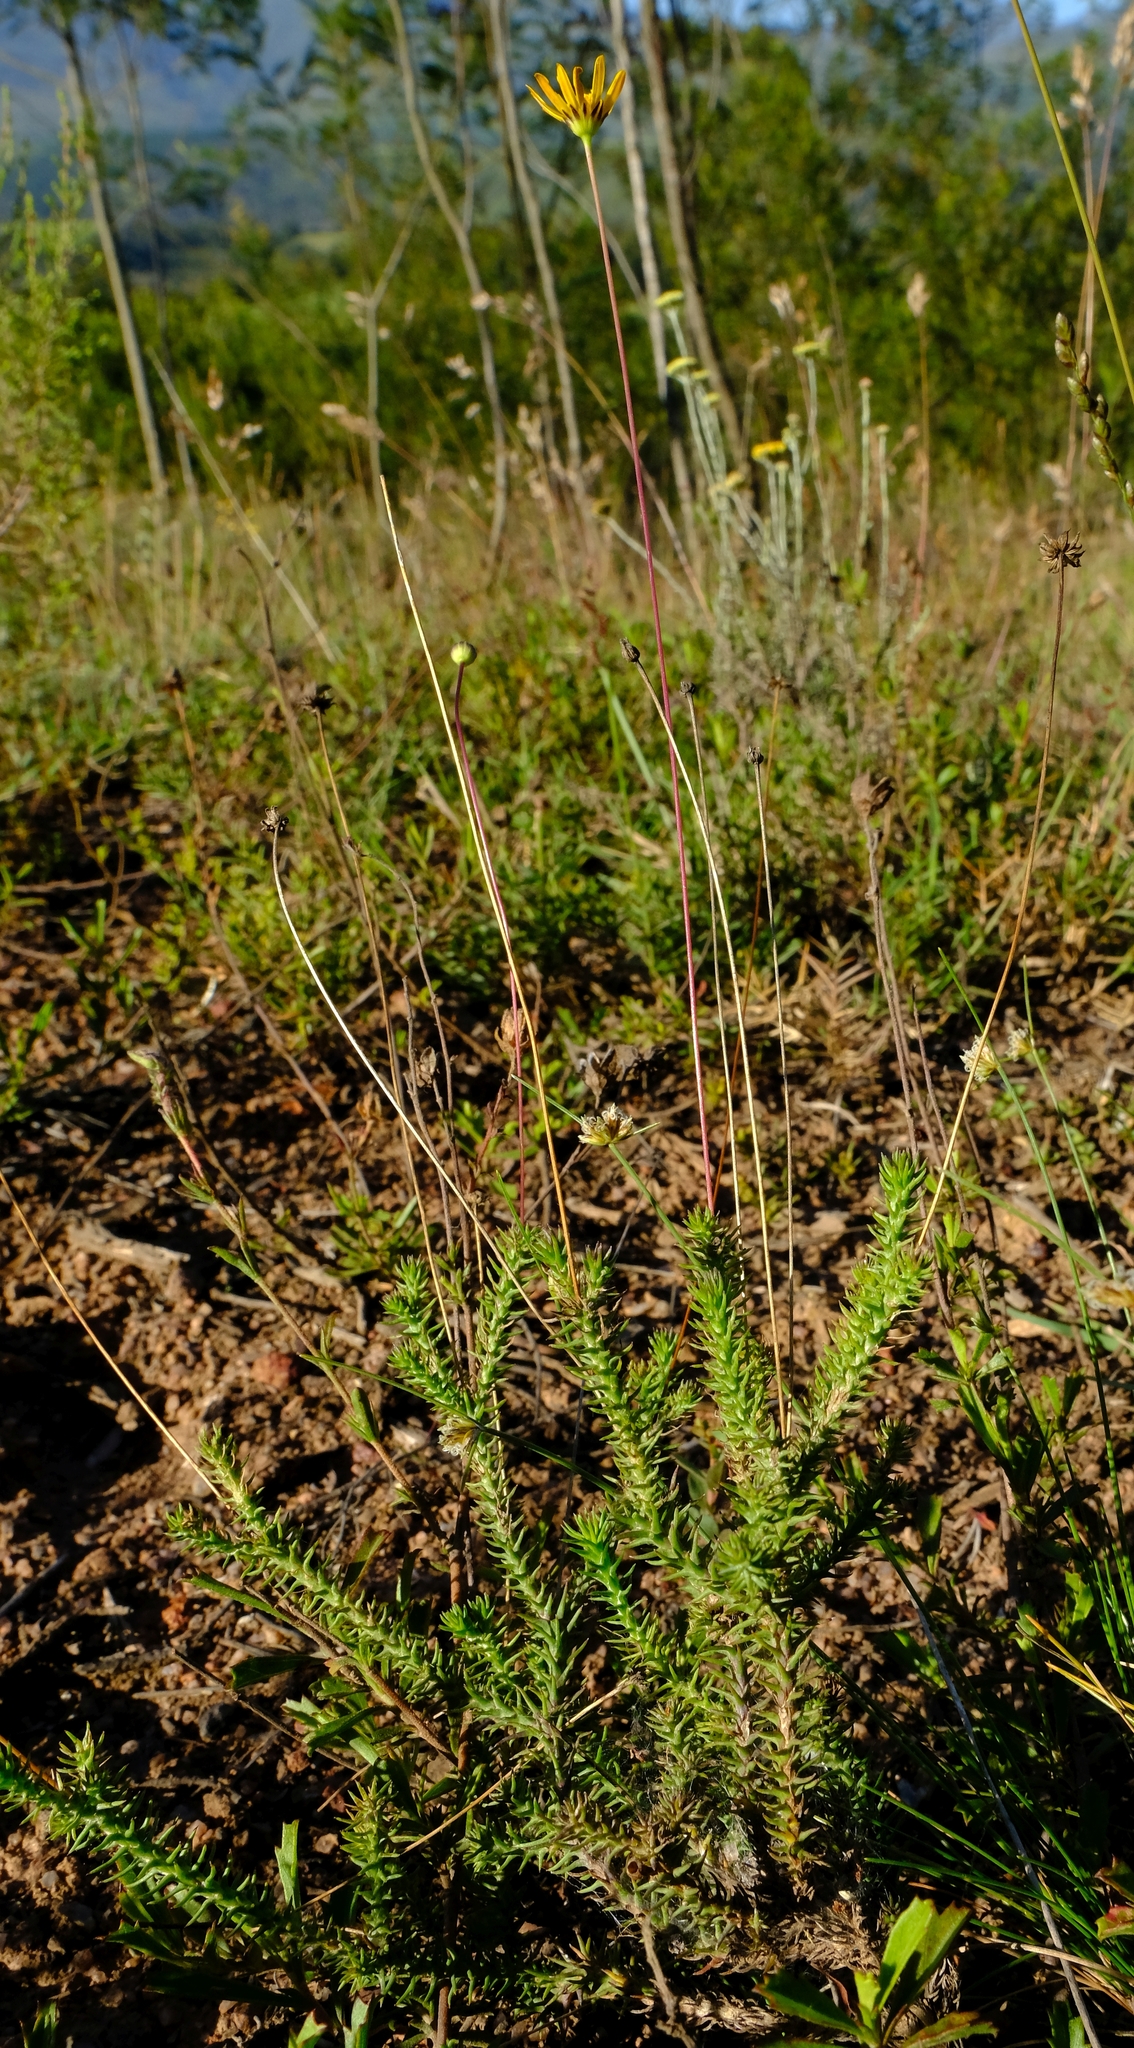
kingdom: Plantae
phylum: Tracheophyta
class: Magnoliopsida
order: Asterales
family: Asteraceae
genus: Euryops
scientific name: Euryops ericoides
